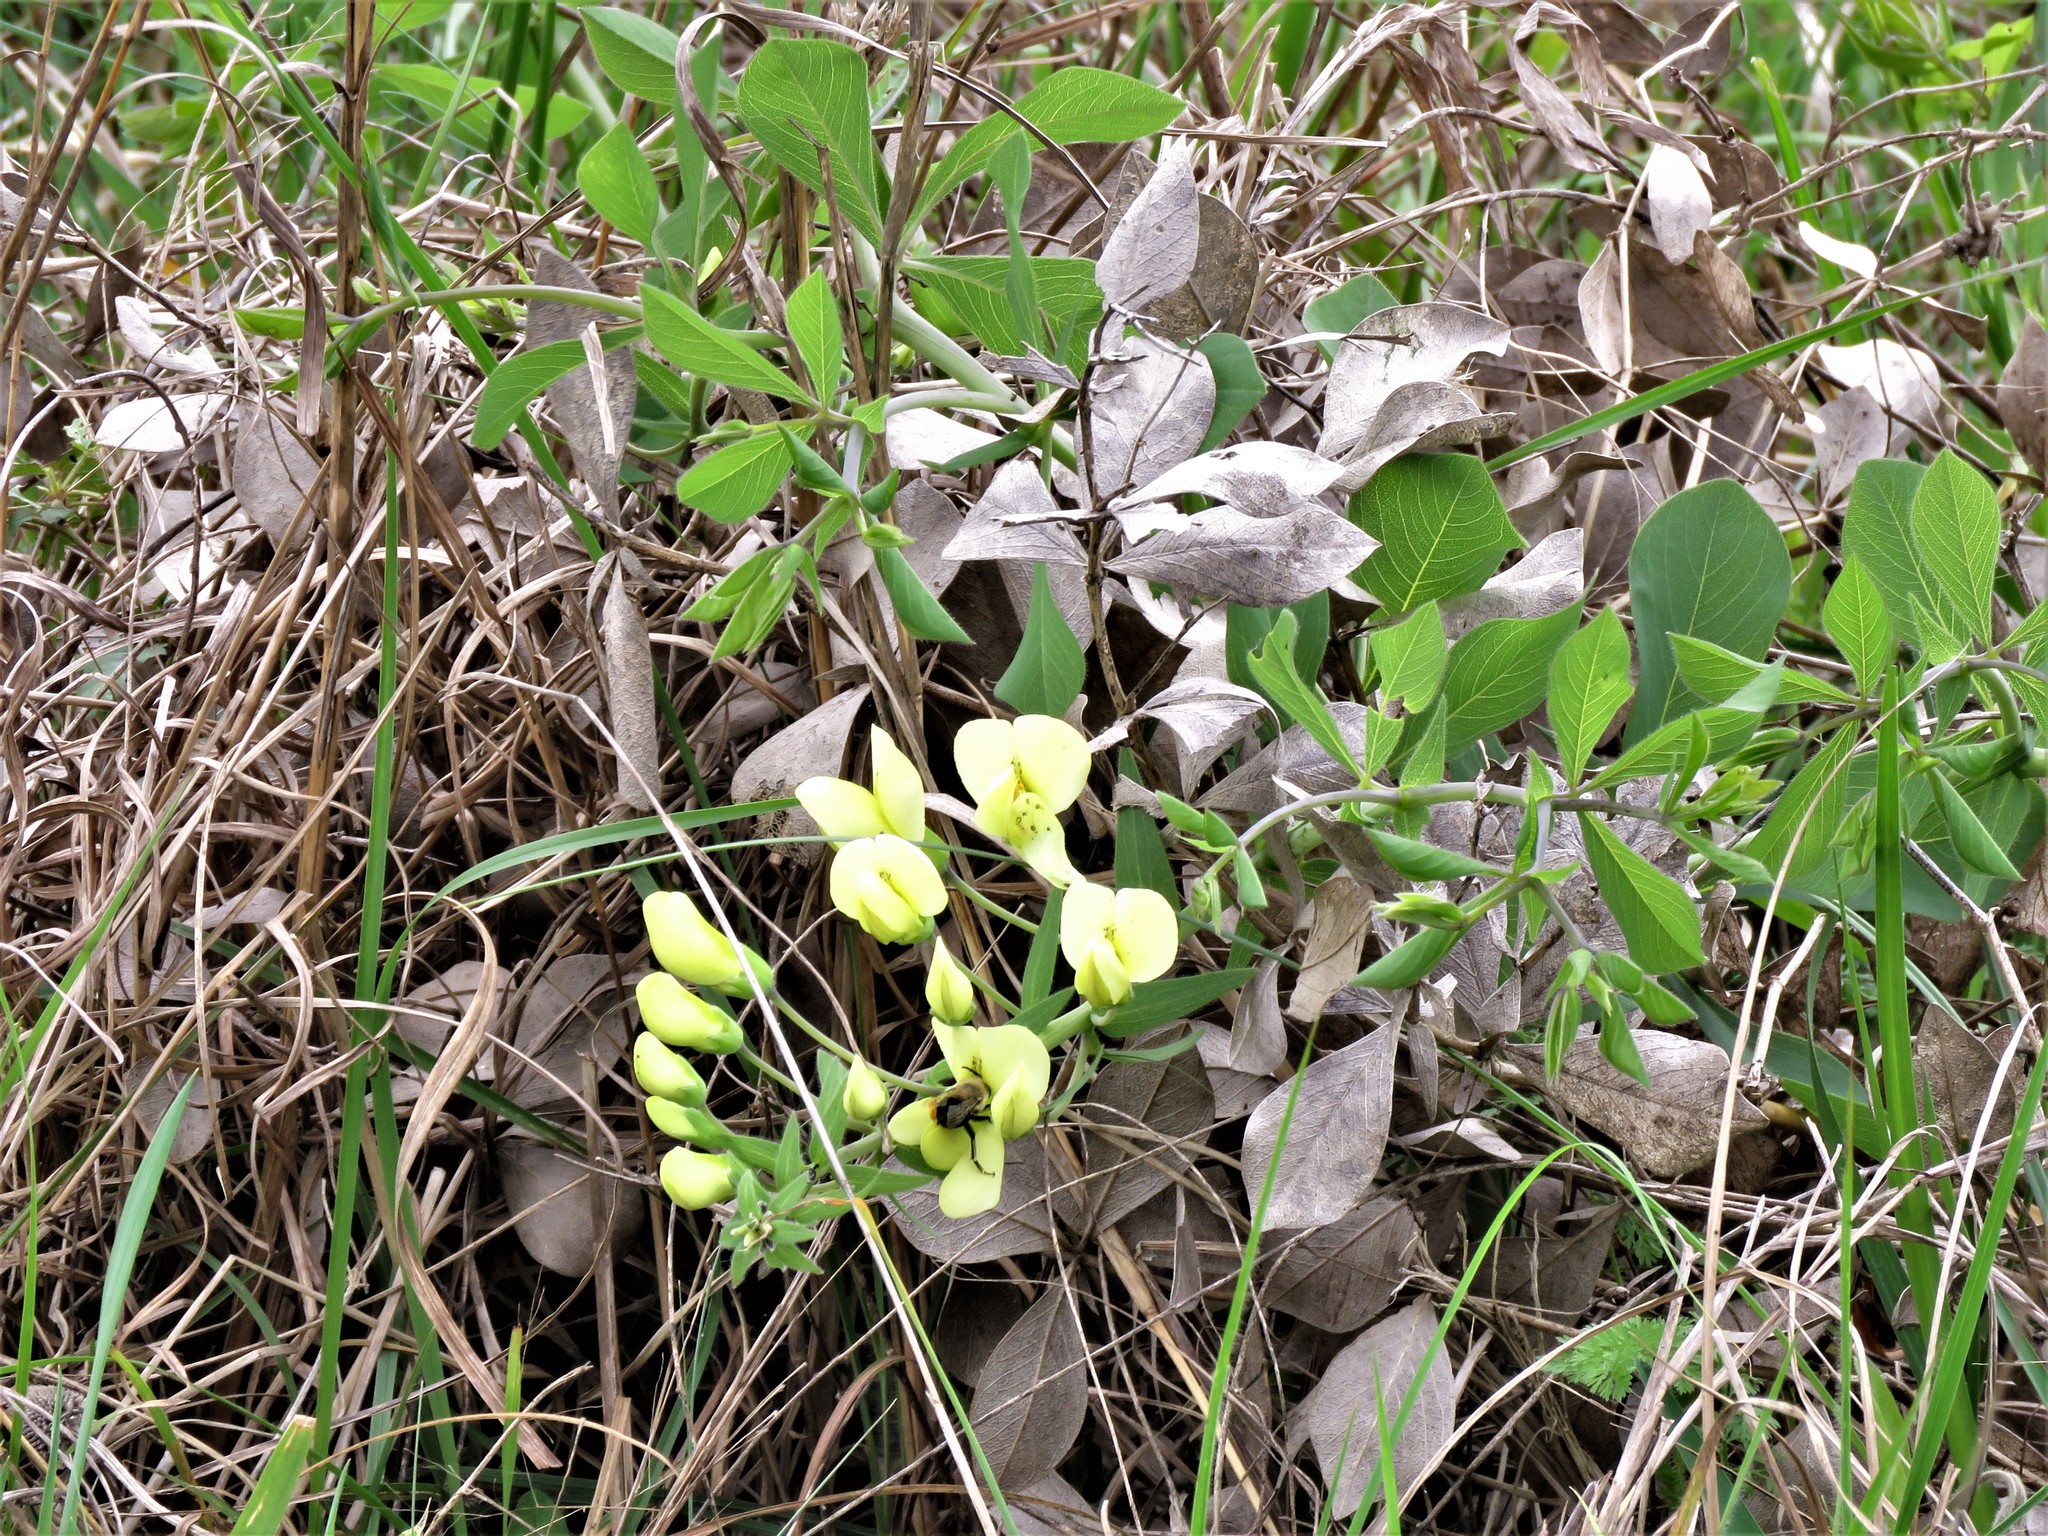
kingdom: Plantae
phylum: Tracheophyta
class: Magnoliopsida
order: Fabales
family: Fabaceae
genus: Baptisia
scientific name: Baptisia bracteata
